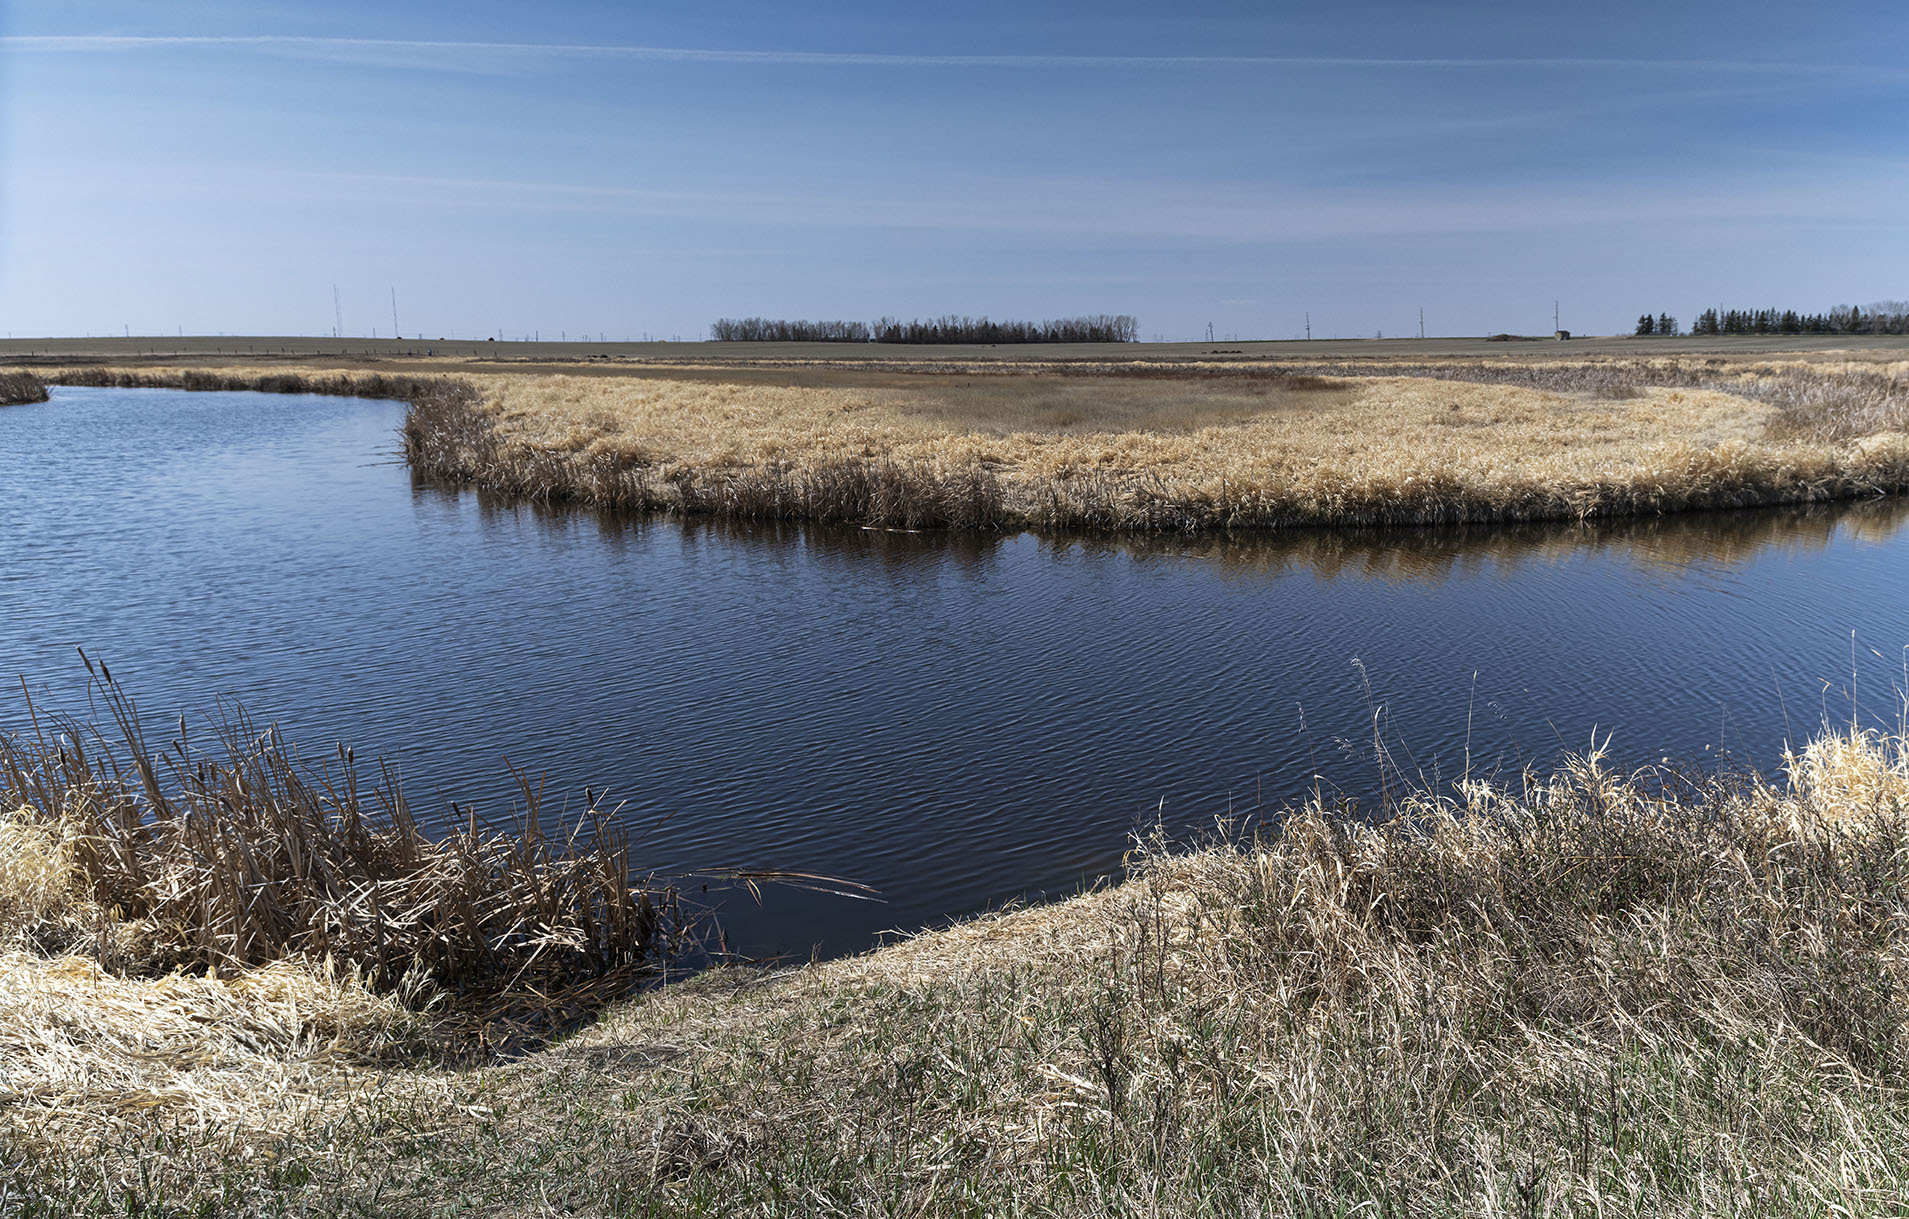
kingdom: Plantae
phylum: Tracheophyta
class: Liliopsida
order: Poales
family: Poaceae
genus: Bromus
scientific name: Bromus inermis
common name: Smooth brome
